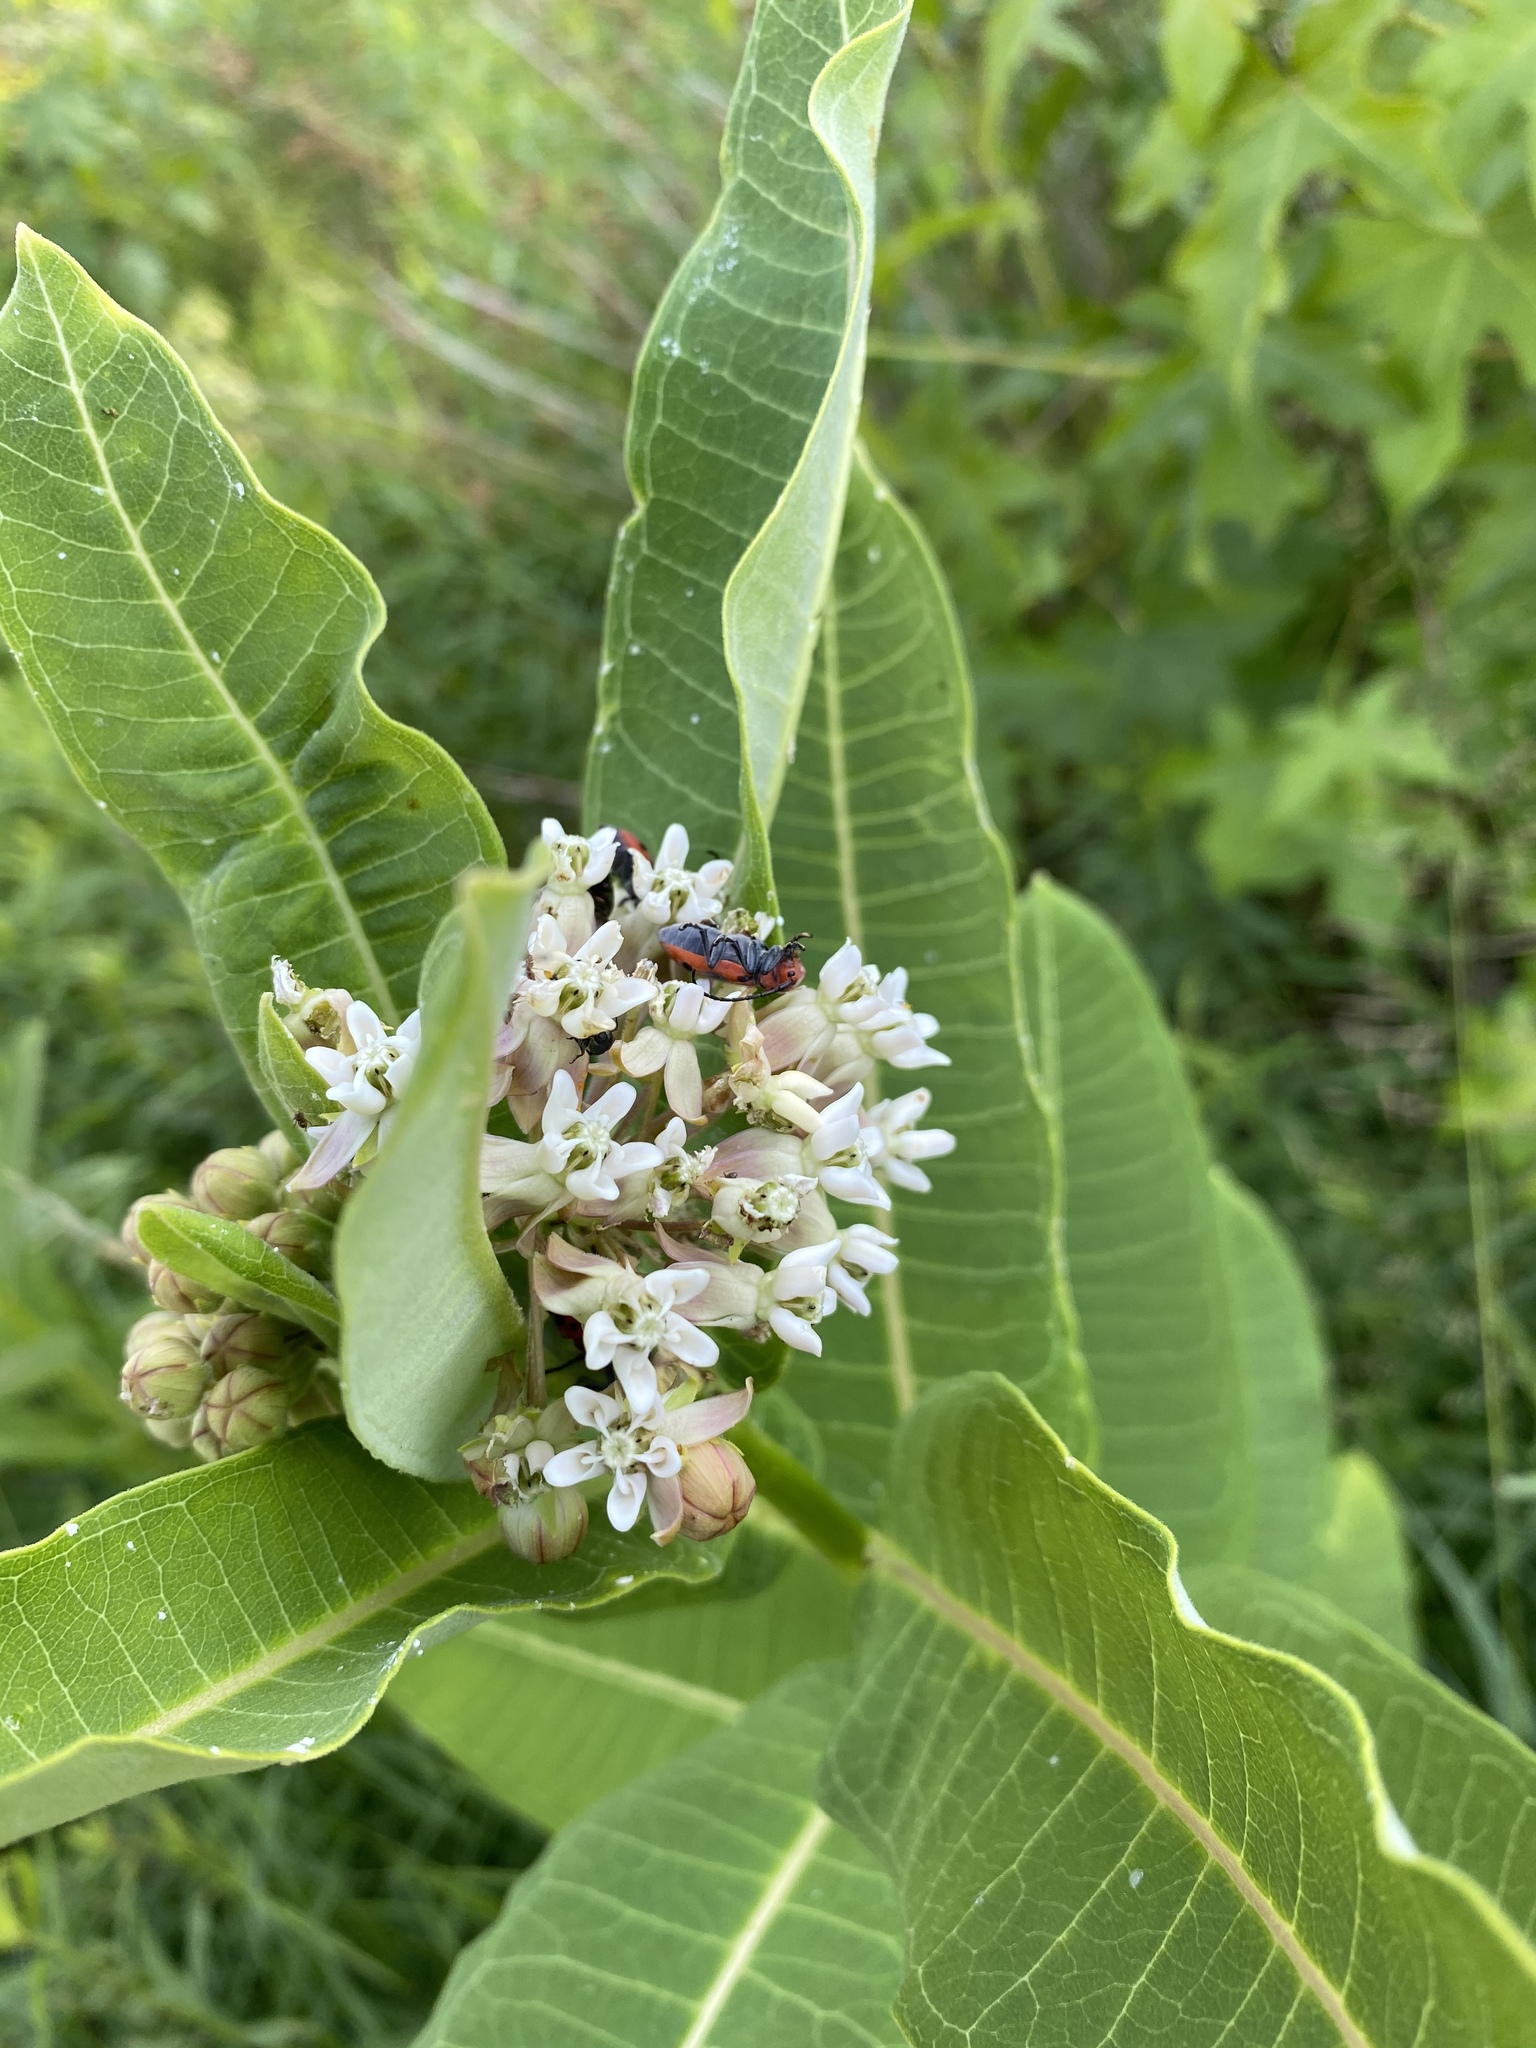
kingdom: Plantae
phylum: Tracheophyta
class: Magnoliopsida
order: Gentianales
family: Apocynaceae
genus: Asclepias
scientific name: Asclepias syriaca
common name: Common milkweed
